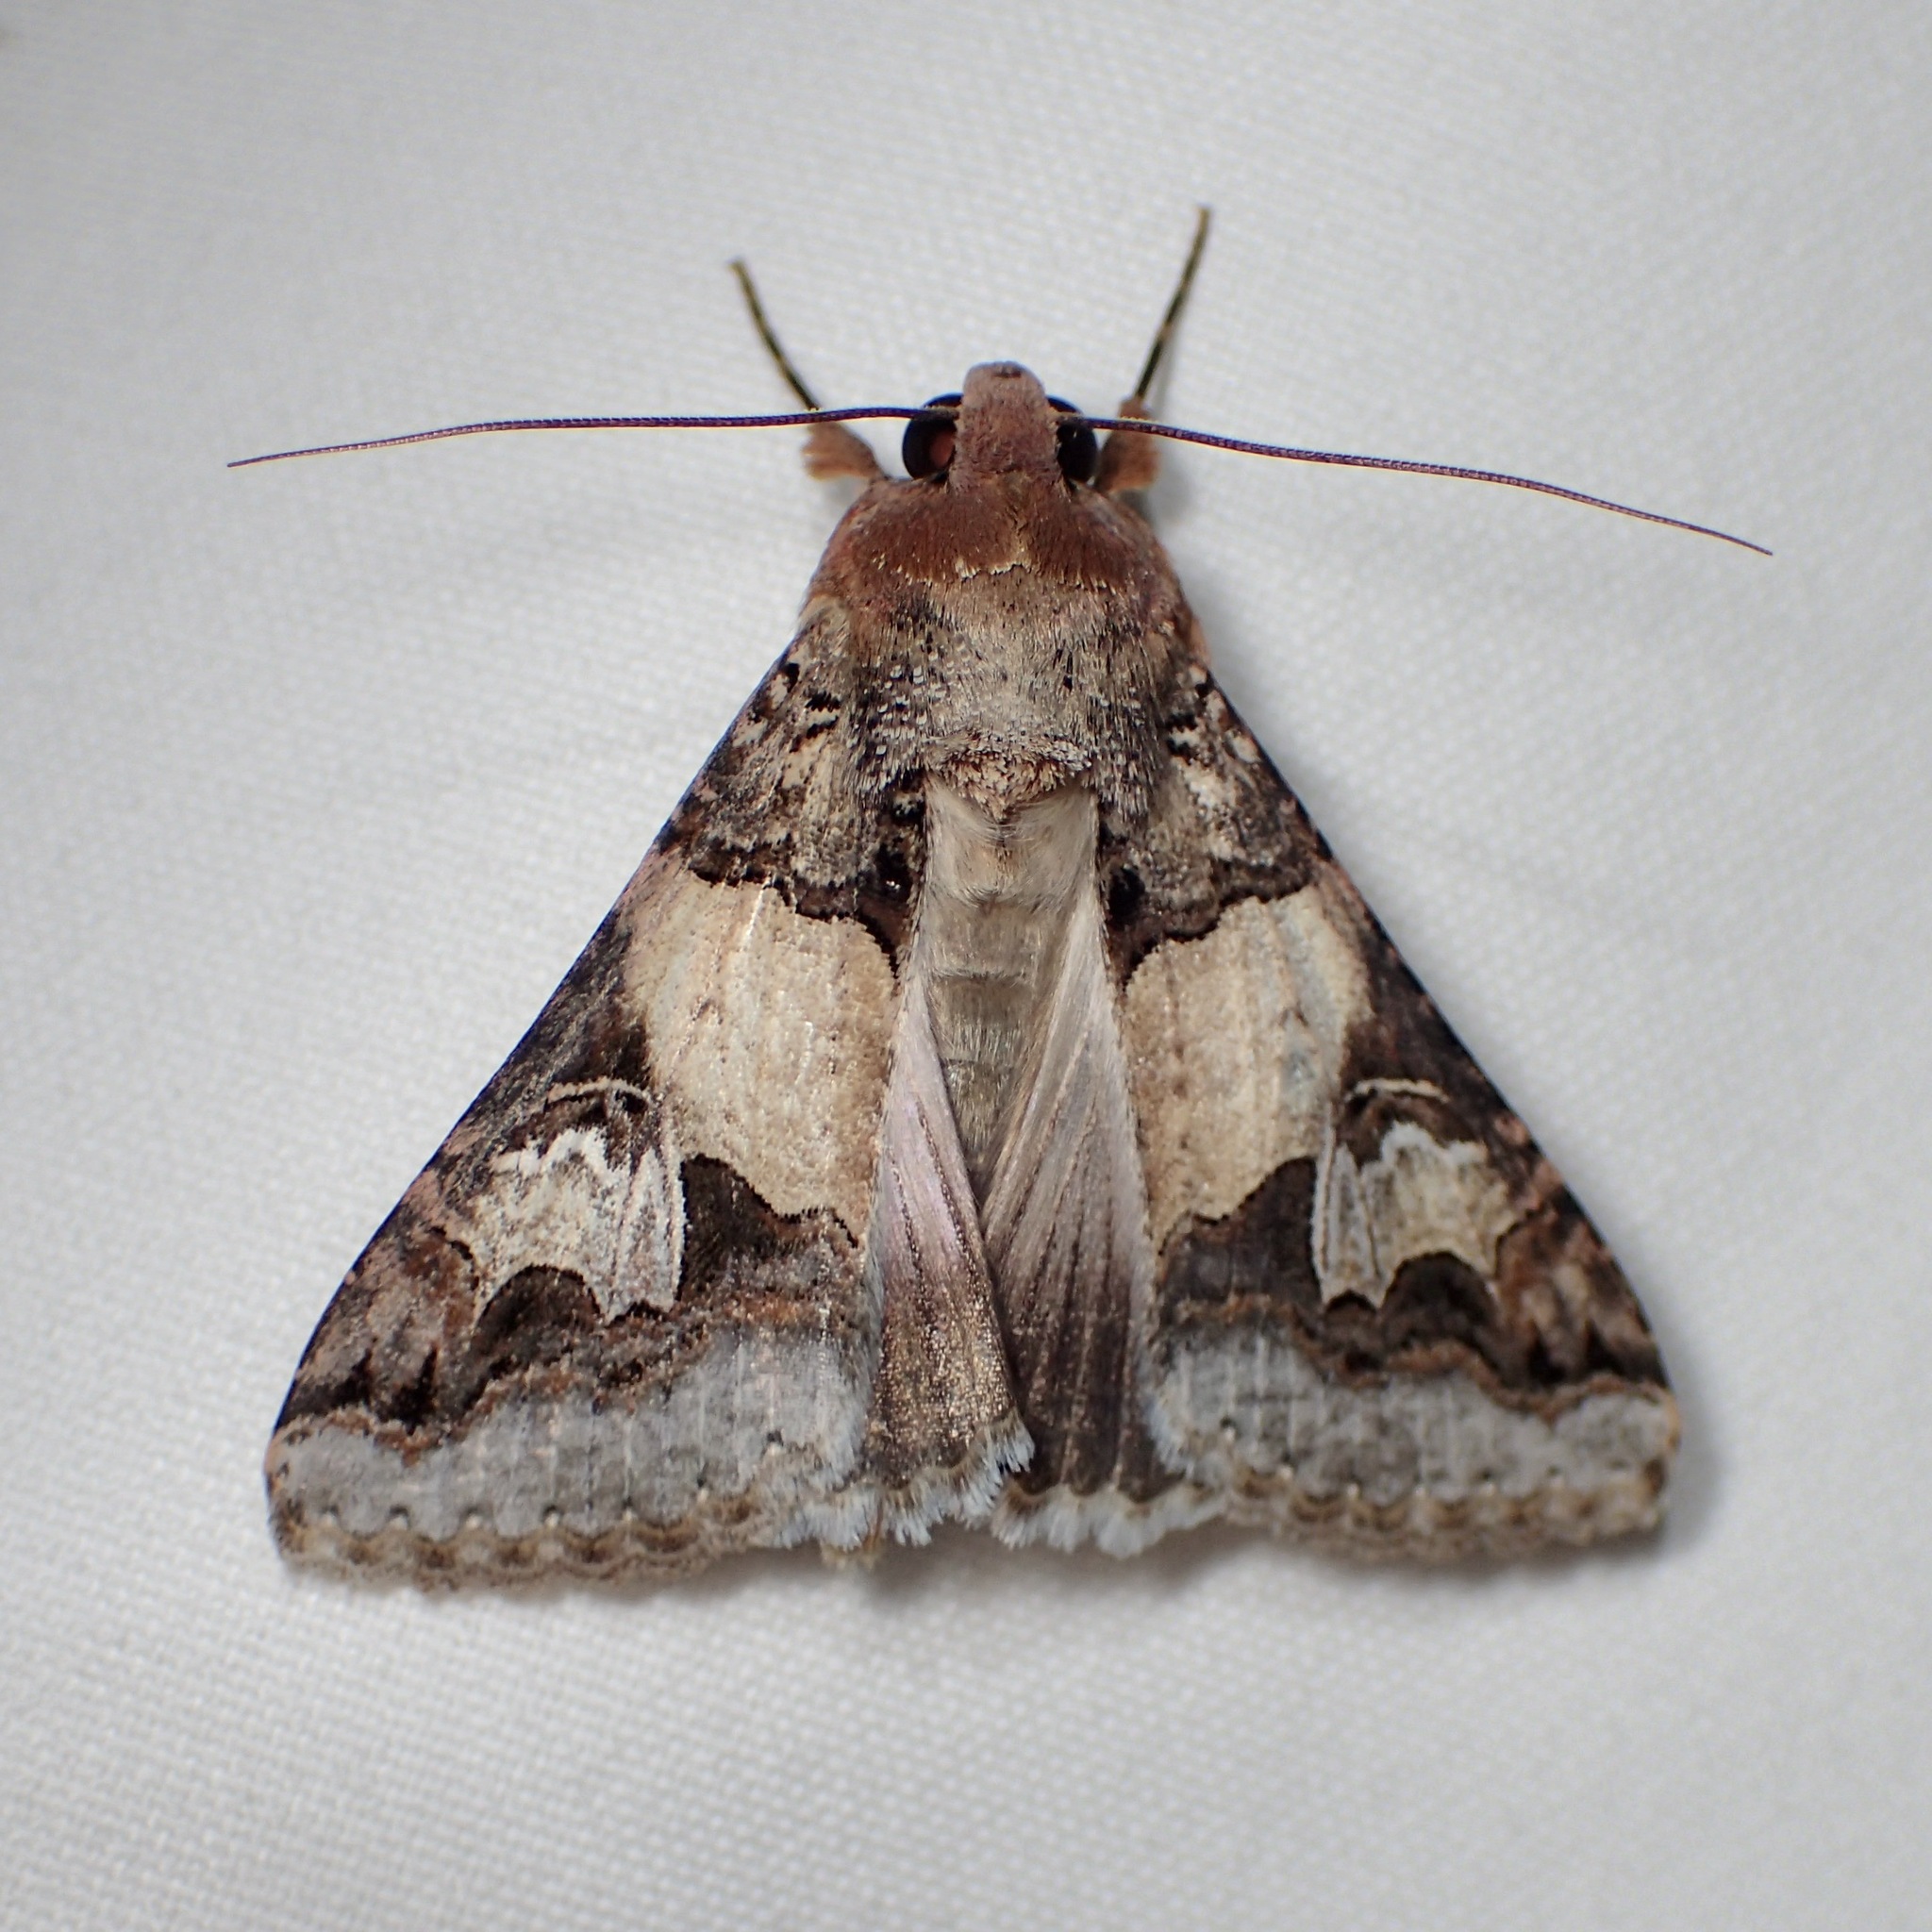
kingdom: Animalia
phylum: Arthropoda
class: Insecta
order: Lepidoptera
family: Erebidae
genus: Melipotis
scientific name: Melipotis novanda
